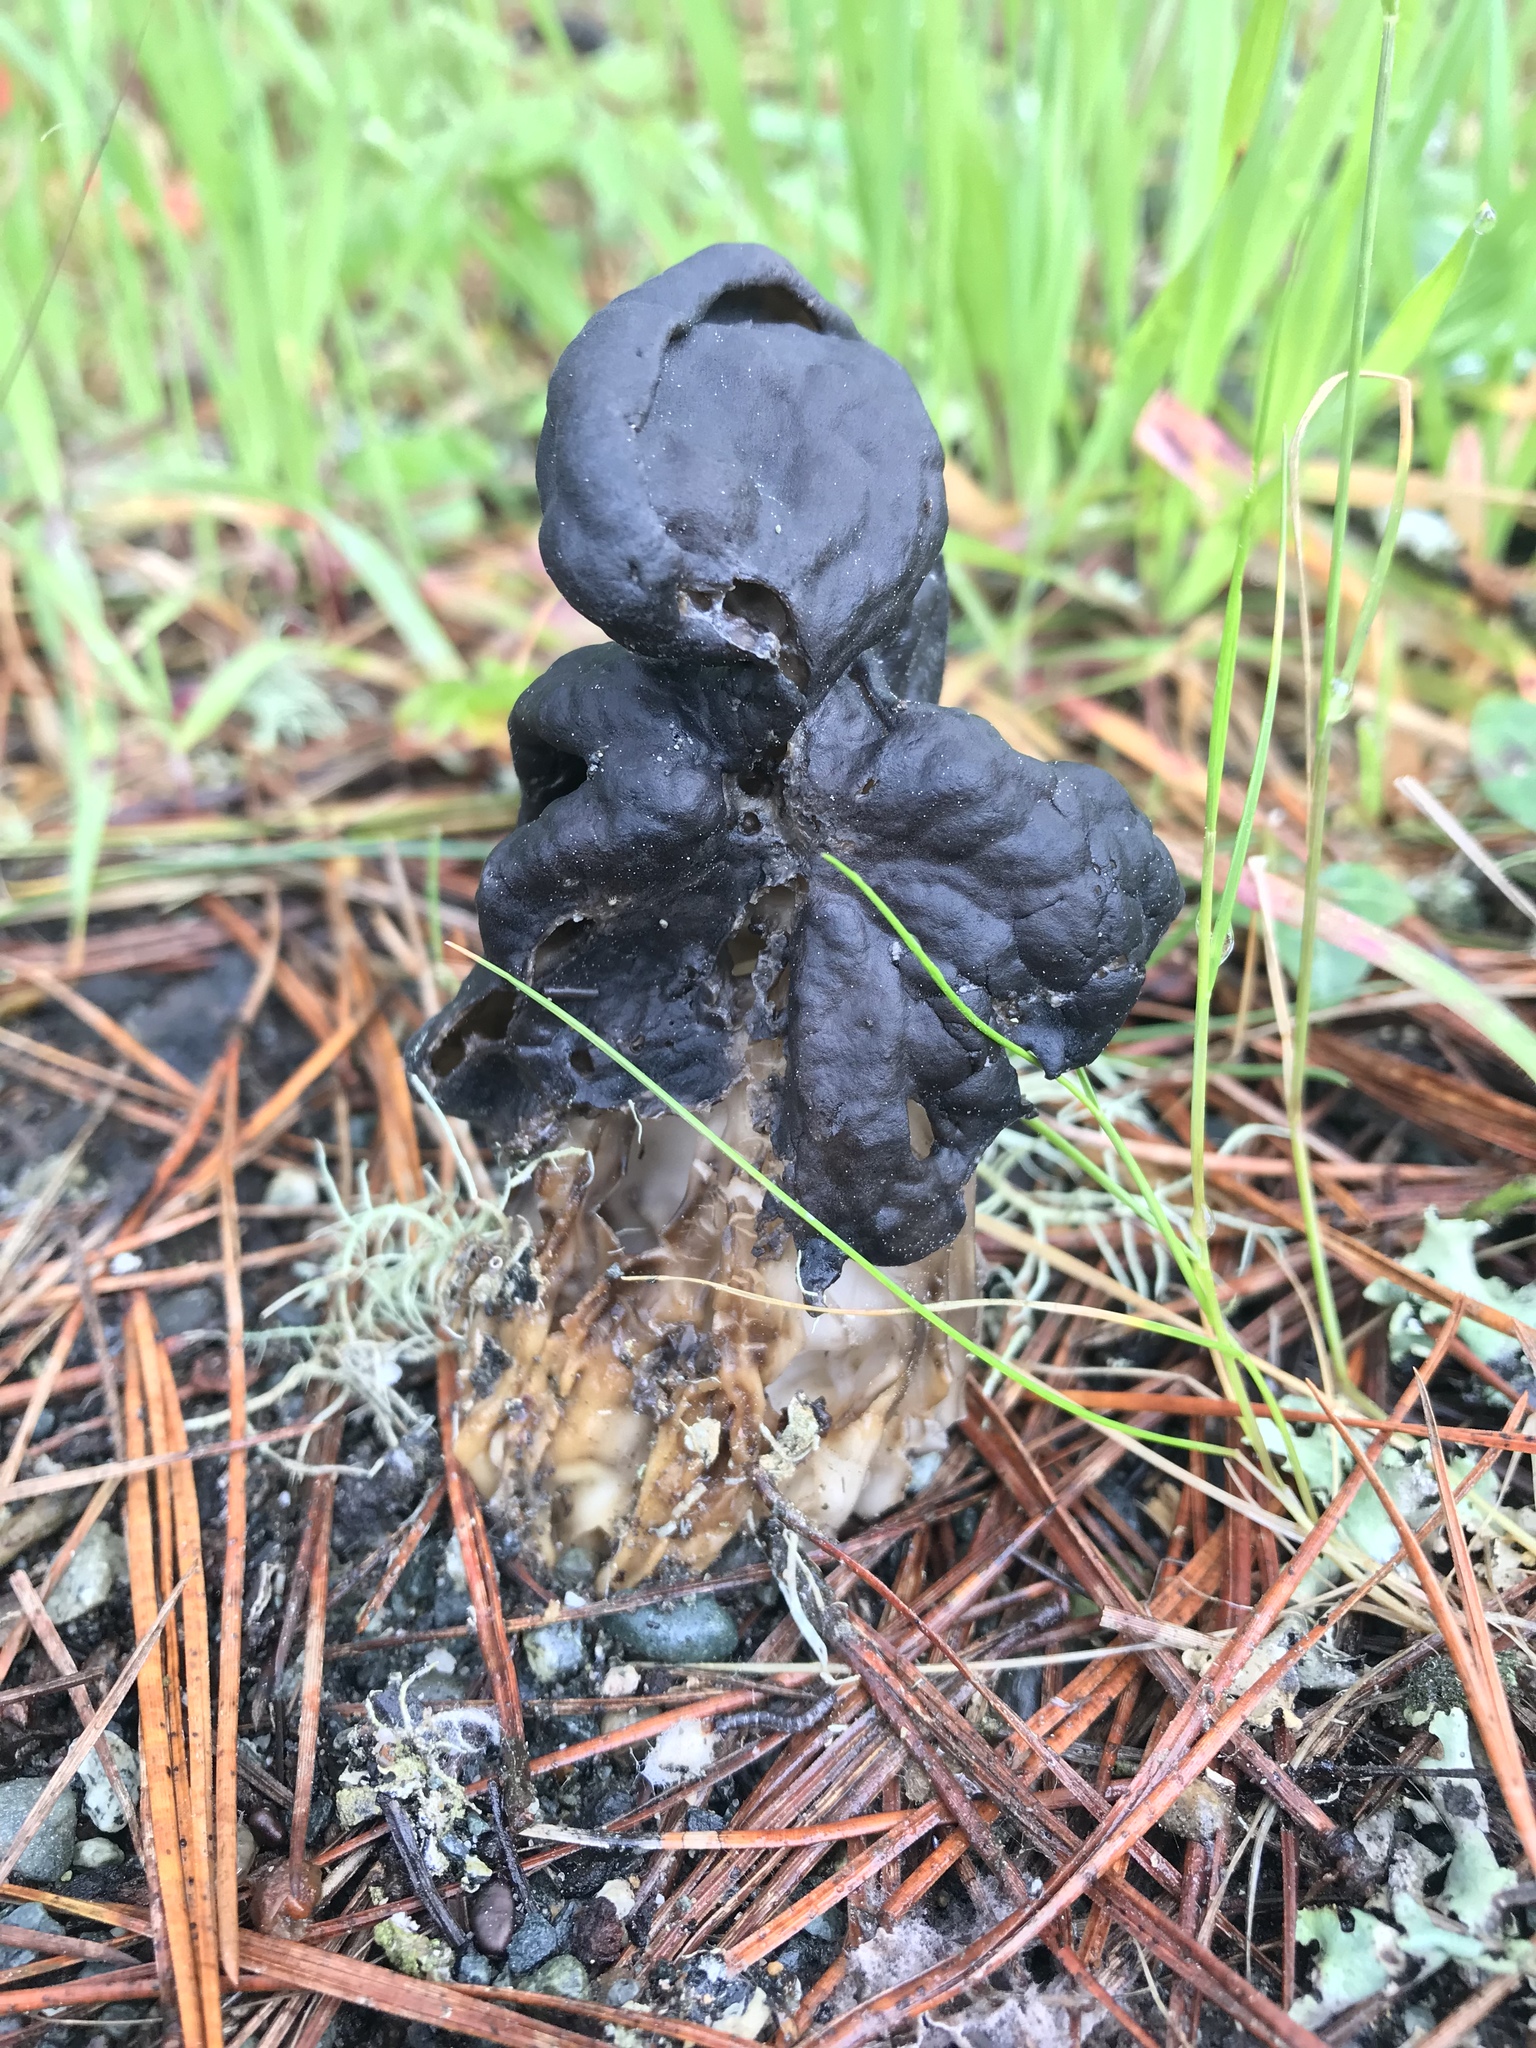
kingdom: Fungi
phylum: Ascomycota
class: Pezizomycetes
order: Pezizales
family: Helvellaceae
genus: Helvella
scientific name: Helvella vespertina
